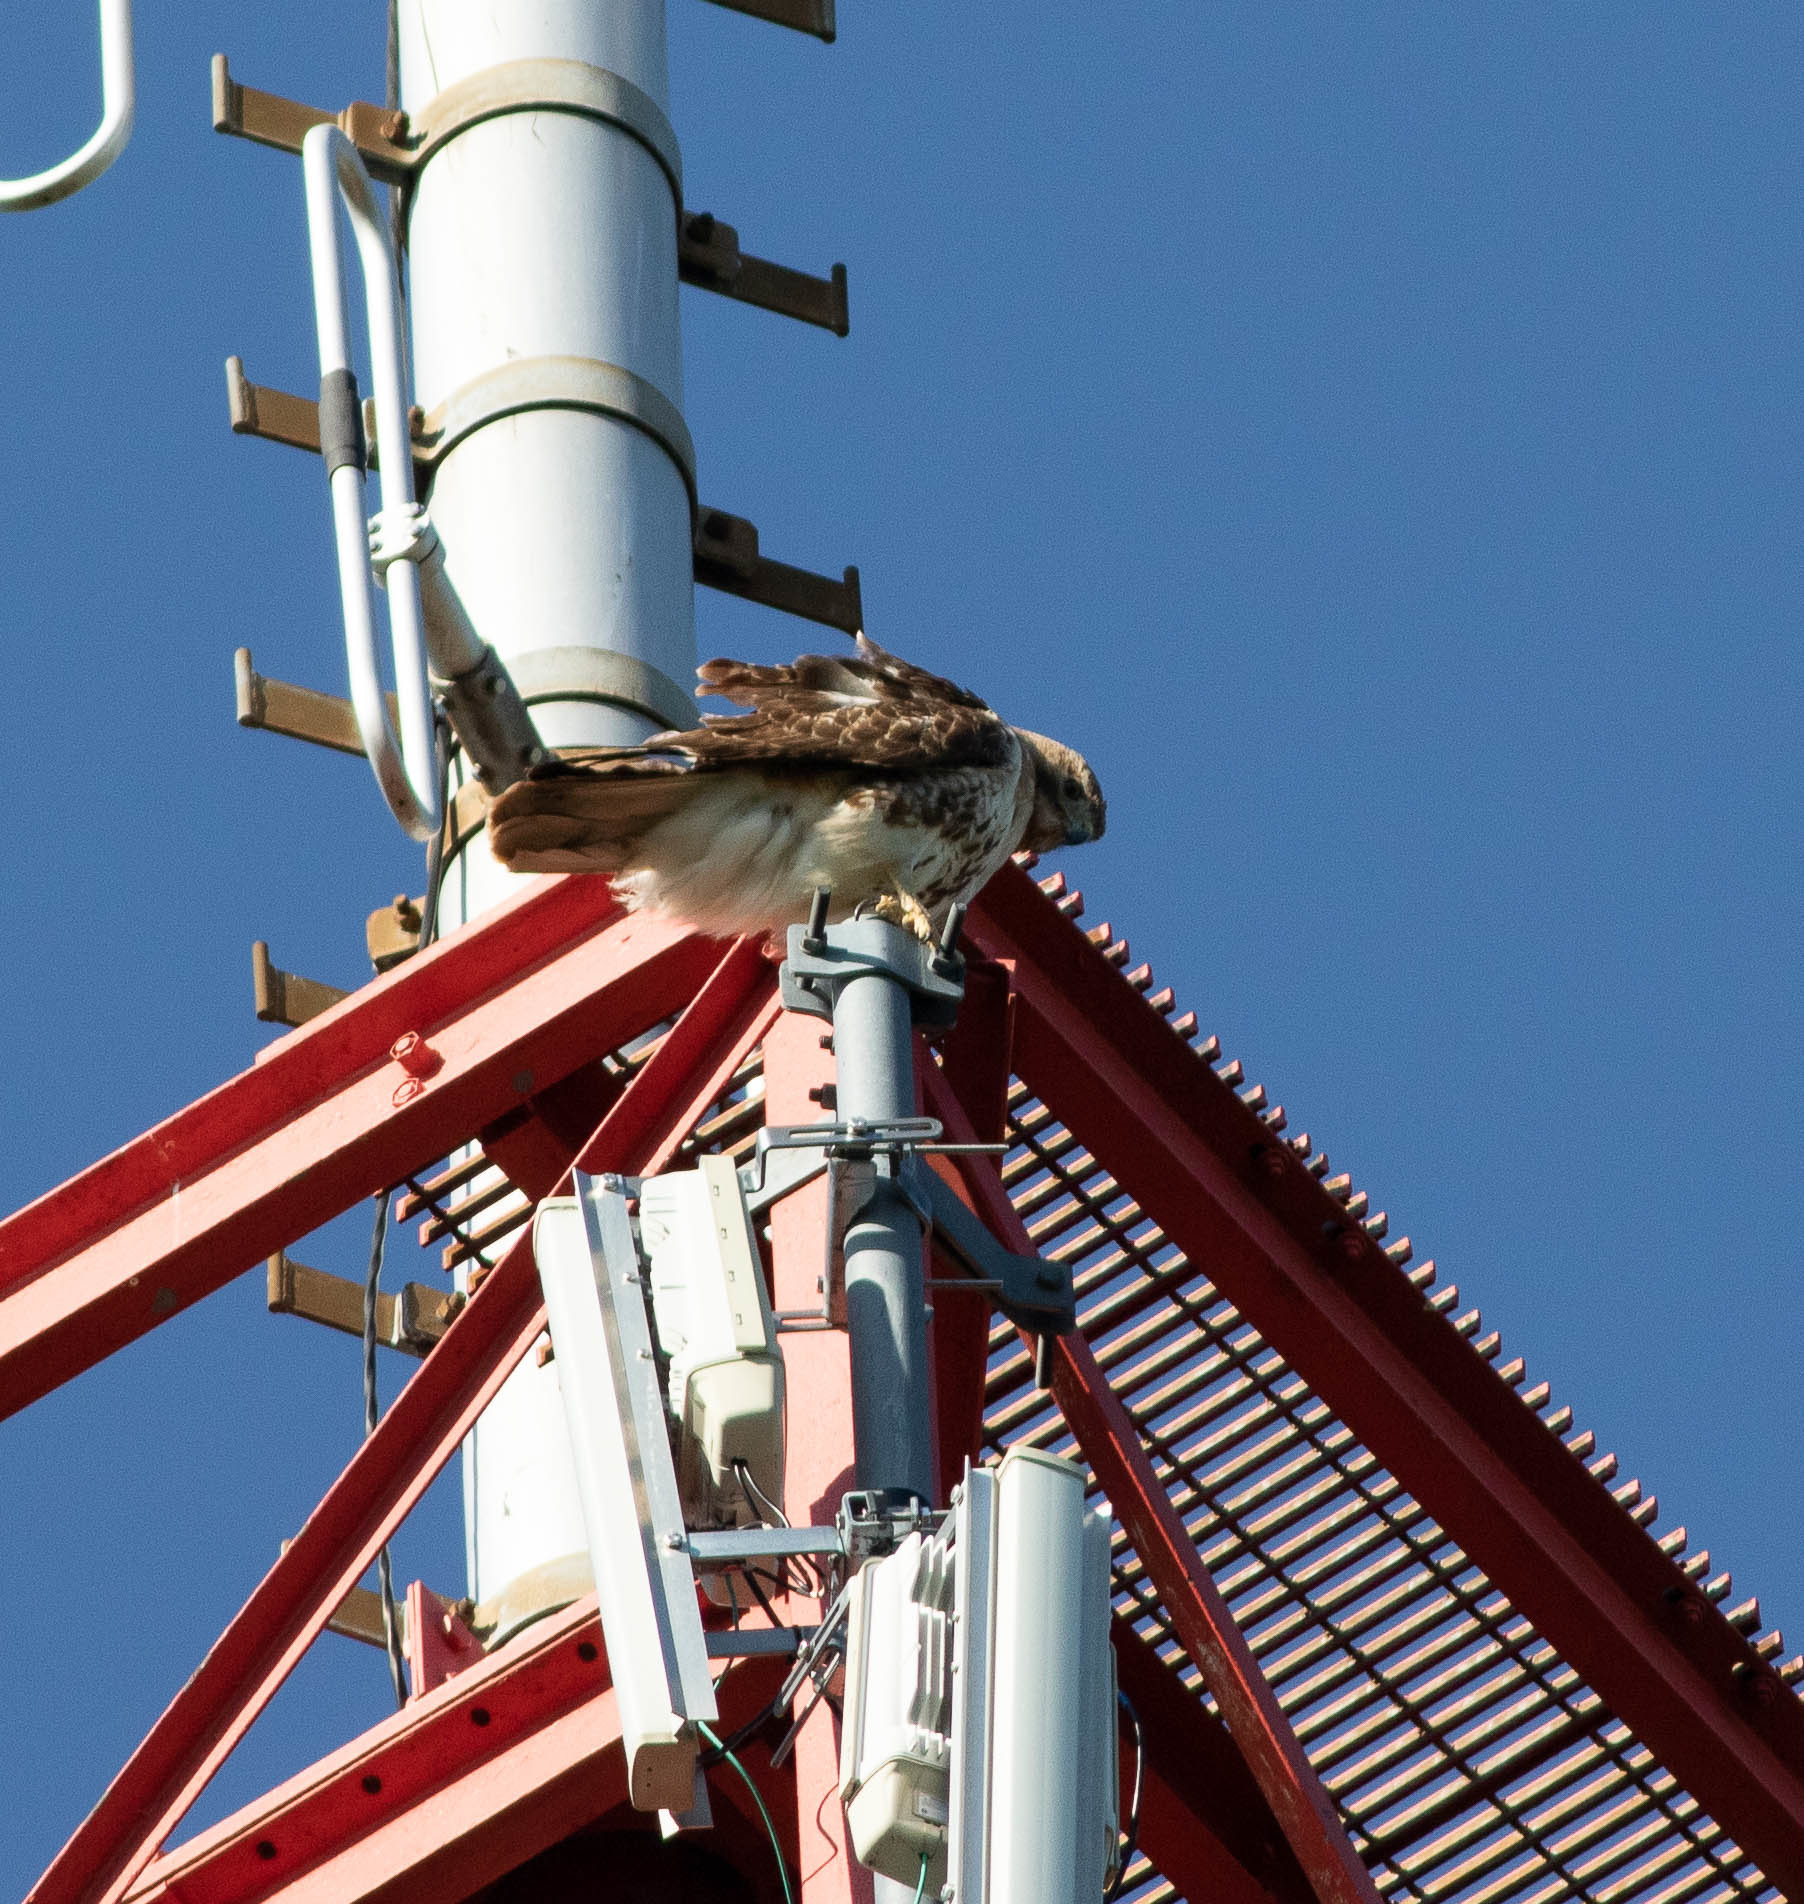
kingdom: Animalia
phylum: Chordata
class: Aves
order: Accipitriformes
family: Accipitridae
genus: Buteo
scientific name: Buteo jamaicensis
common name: Red-tailed hawk
